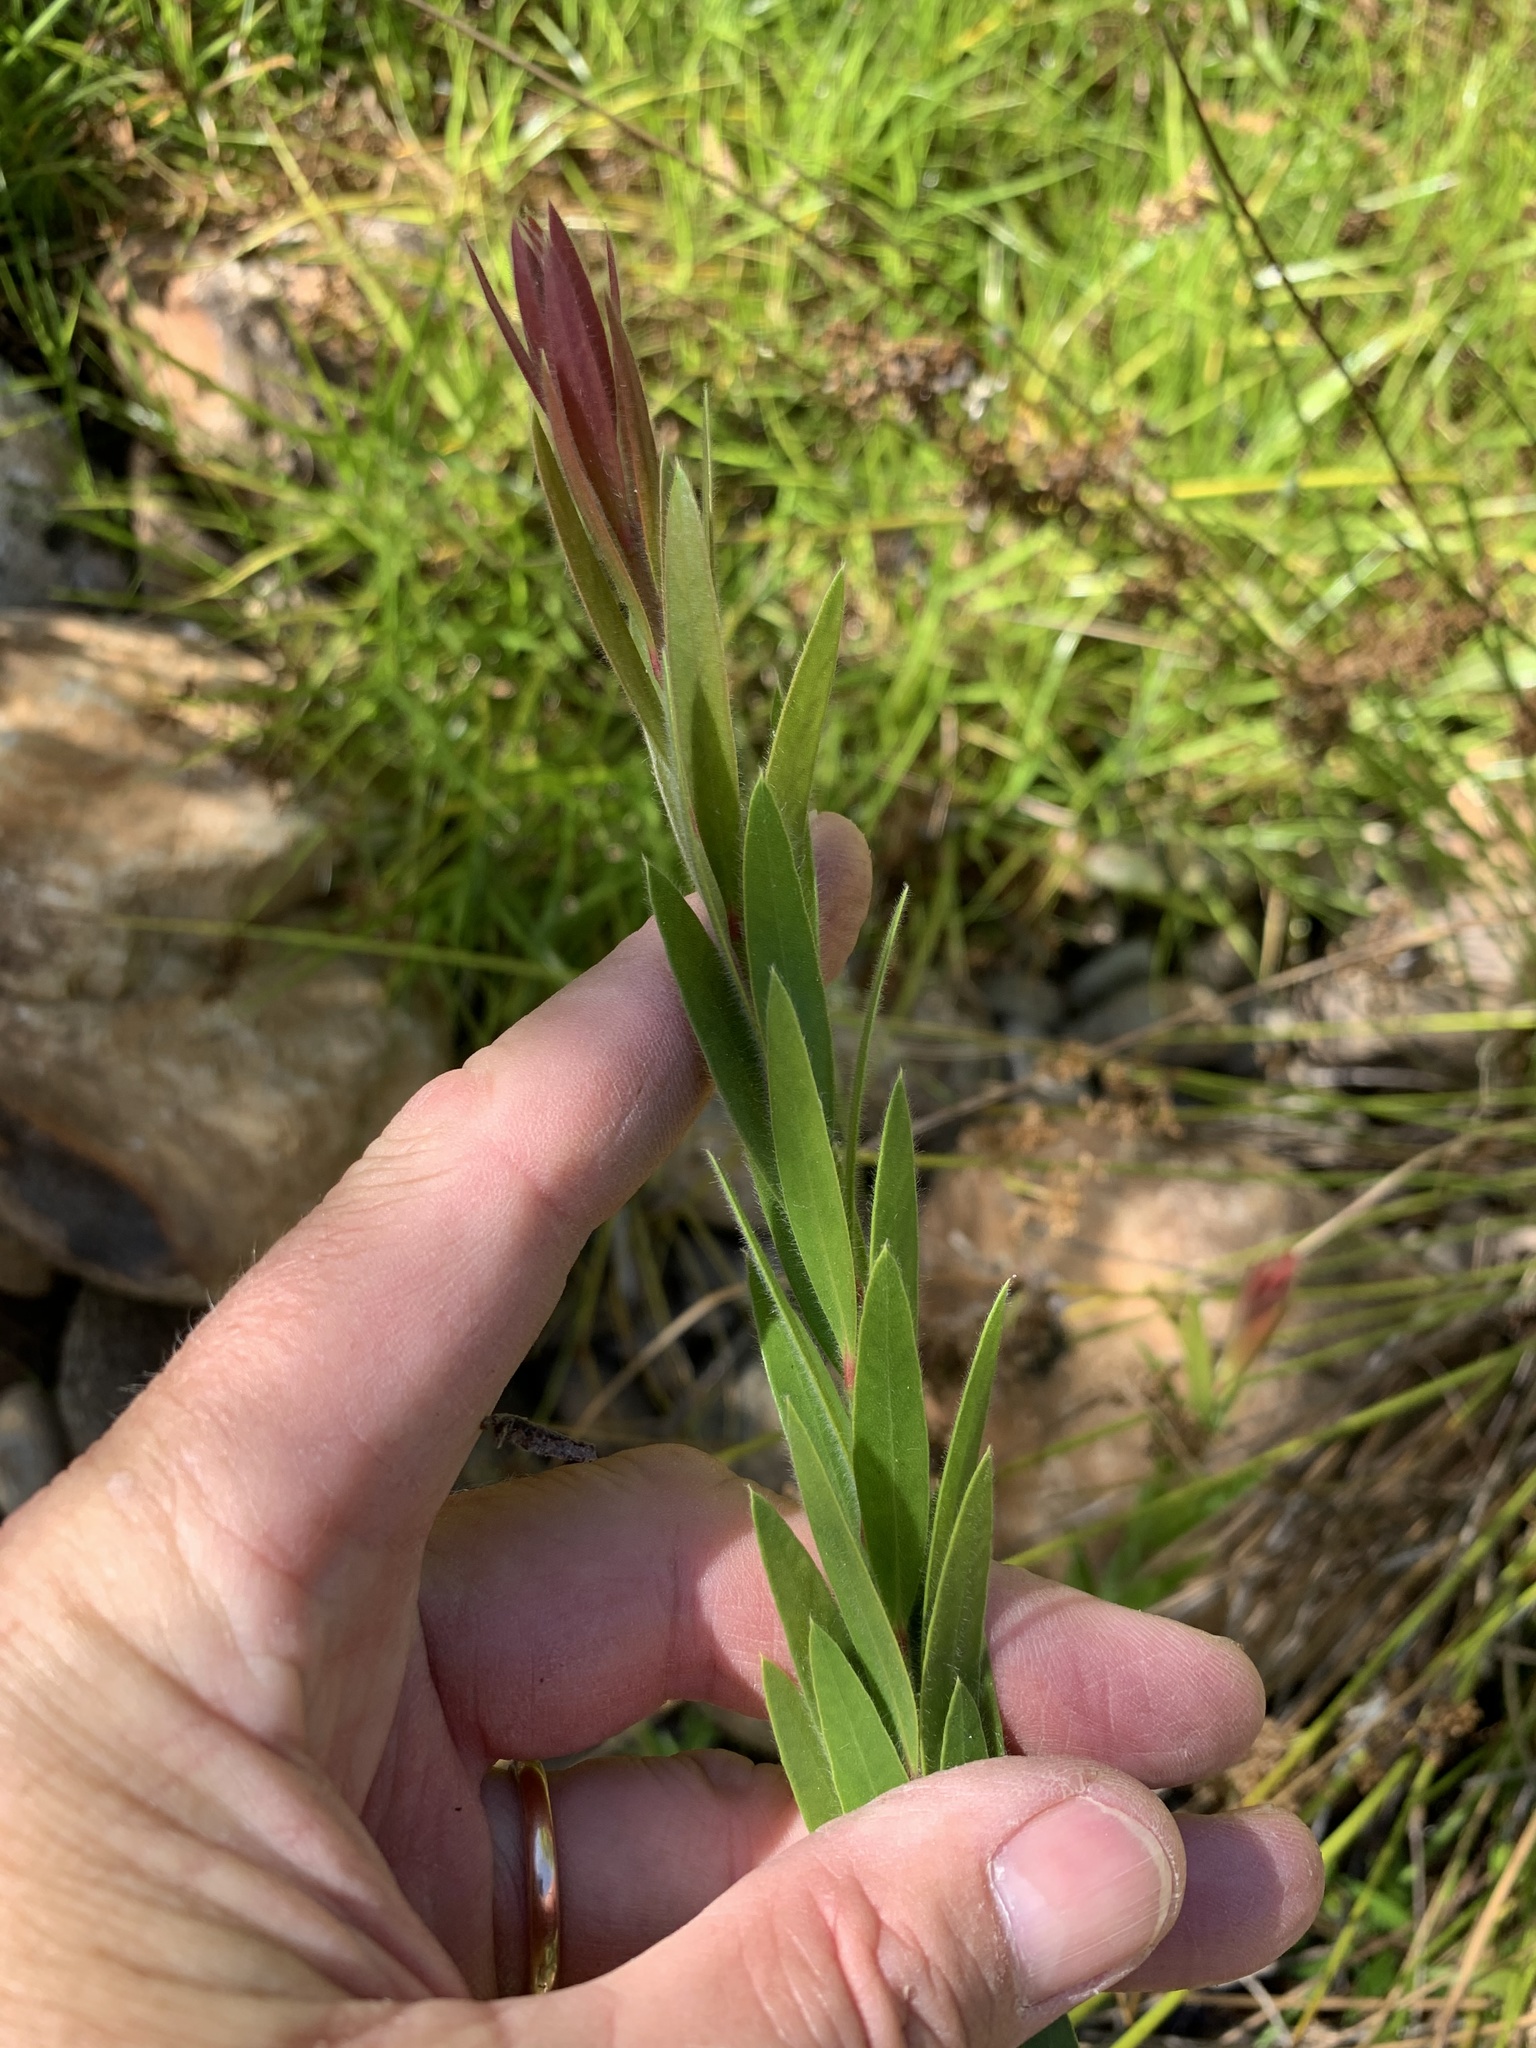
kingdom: Plantae
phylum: Tracheophyta
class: Magnoliopsida
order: Myrtales
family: Myrtaceae
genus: Callistemon
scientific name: Callistemon viminalis
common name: Drooping bottlebrush
